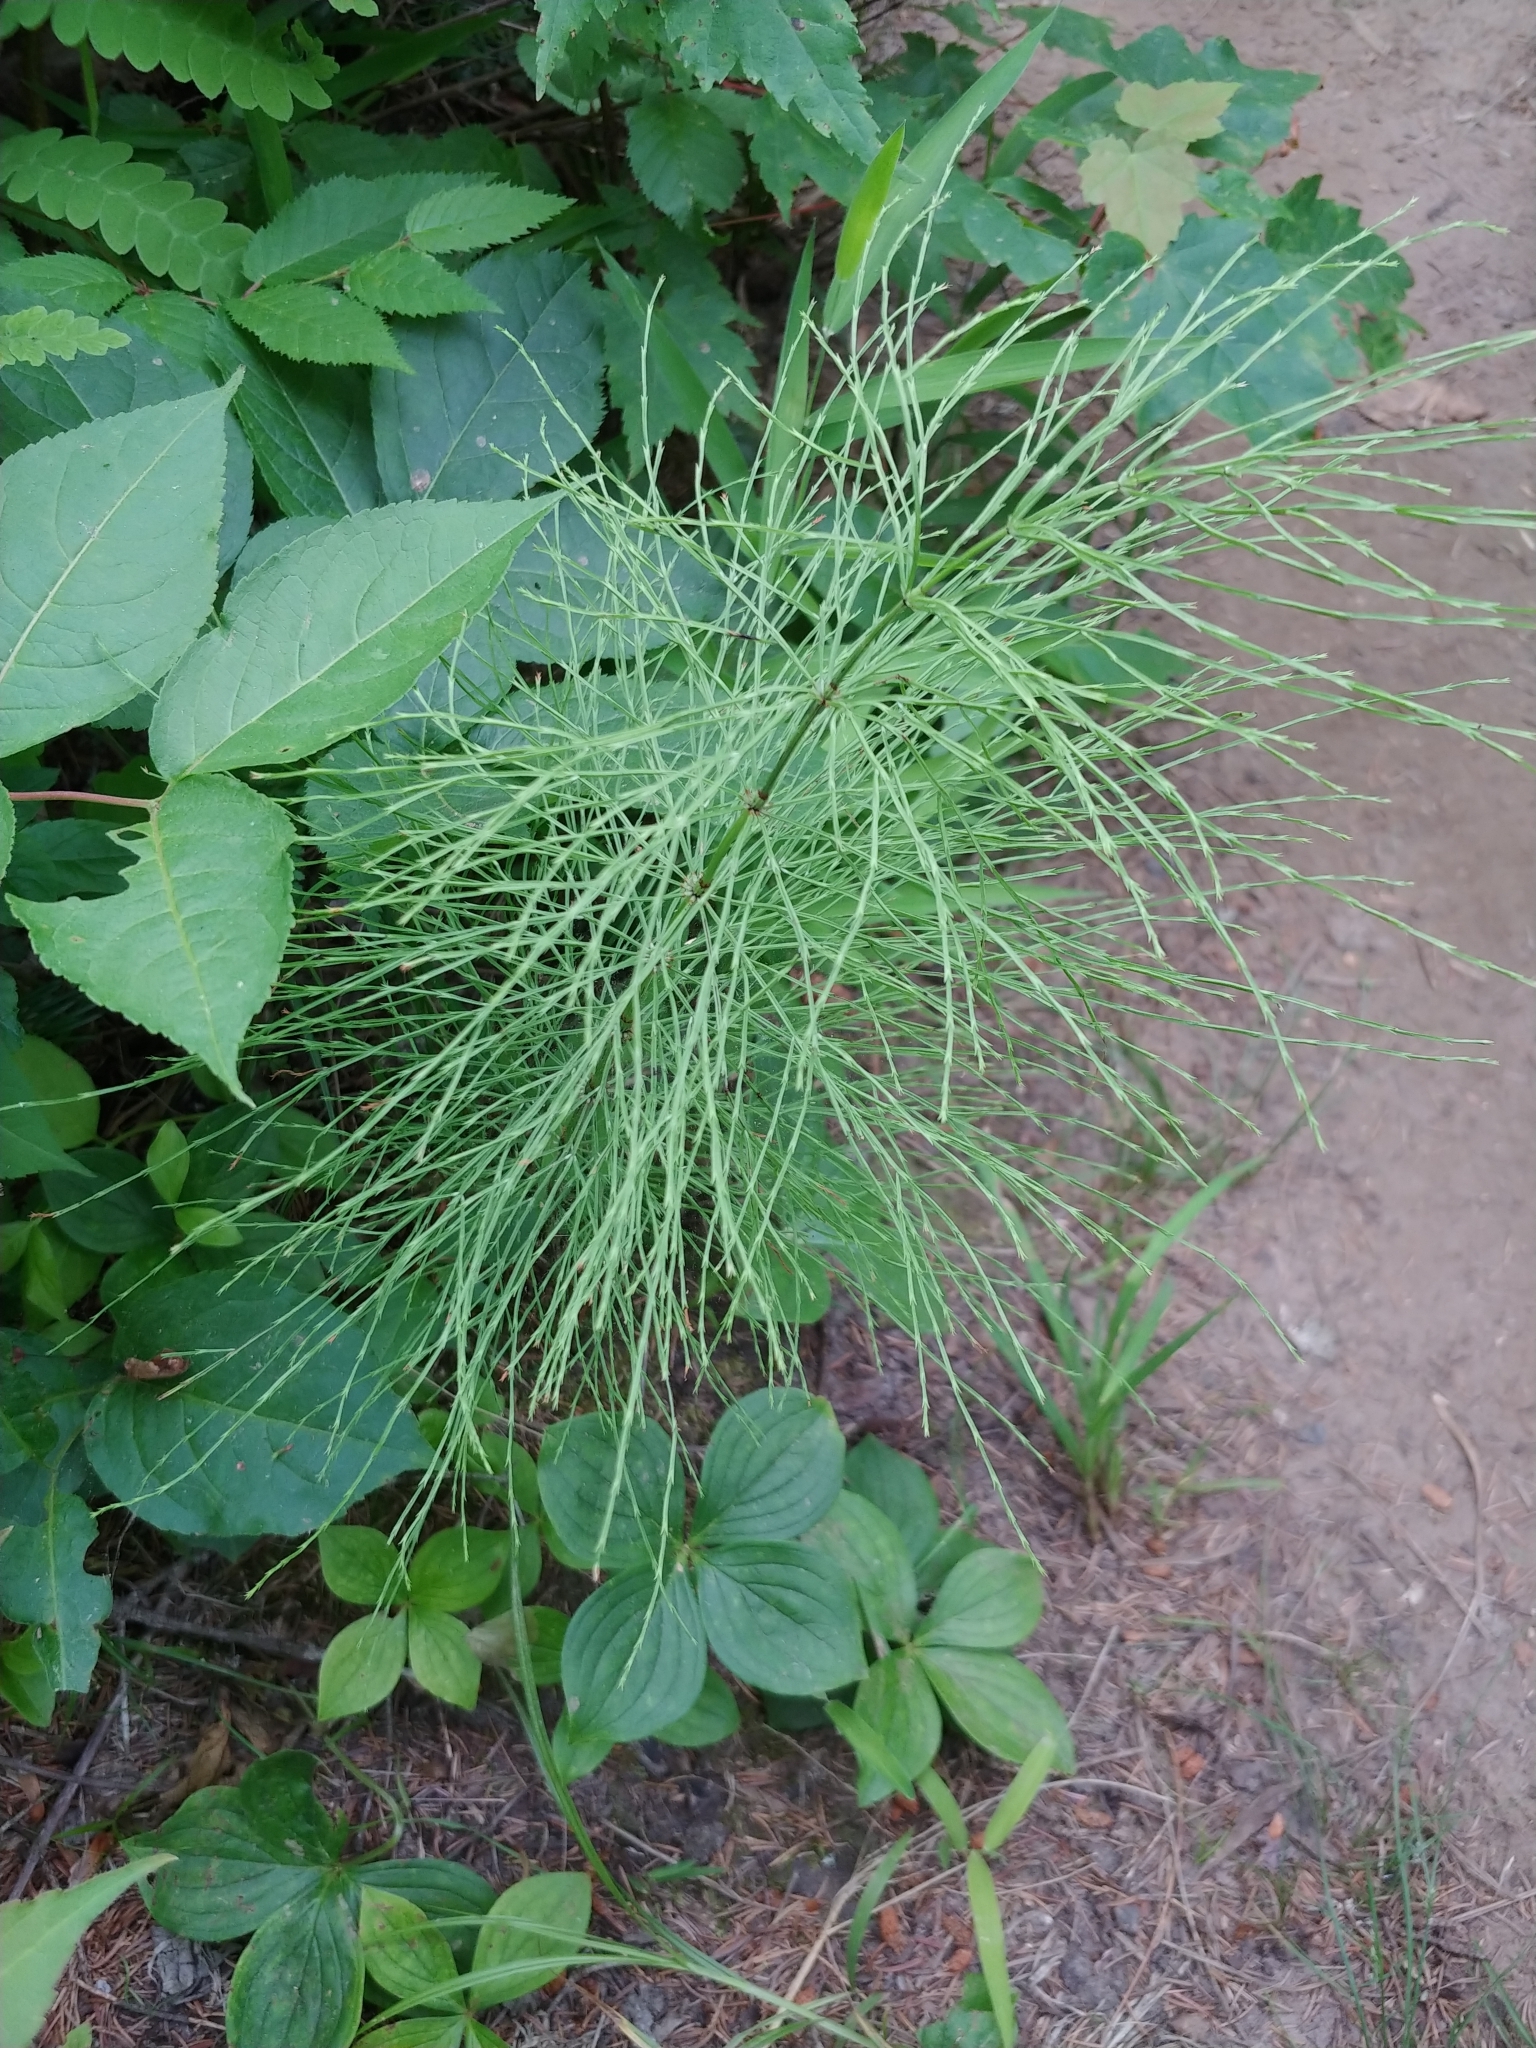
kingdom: Plantae
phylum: Tracheophyta
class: Polypodiopsida
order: Equisetales
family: Equisetaceae
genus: Equisetum
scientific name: Equisetum sylvaticum
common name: Wood horsetail
